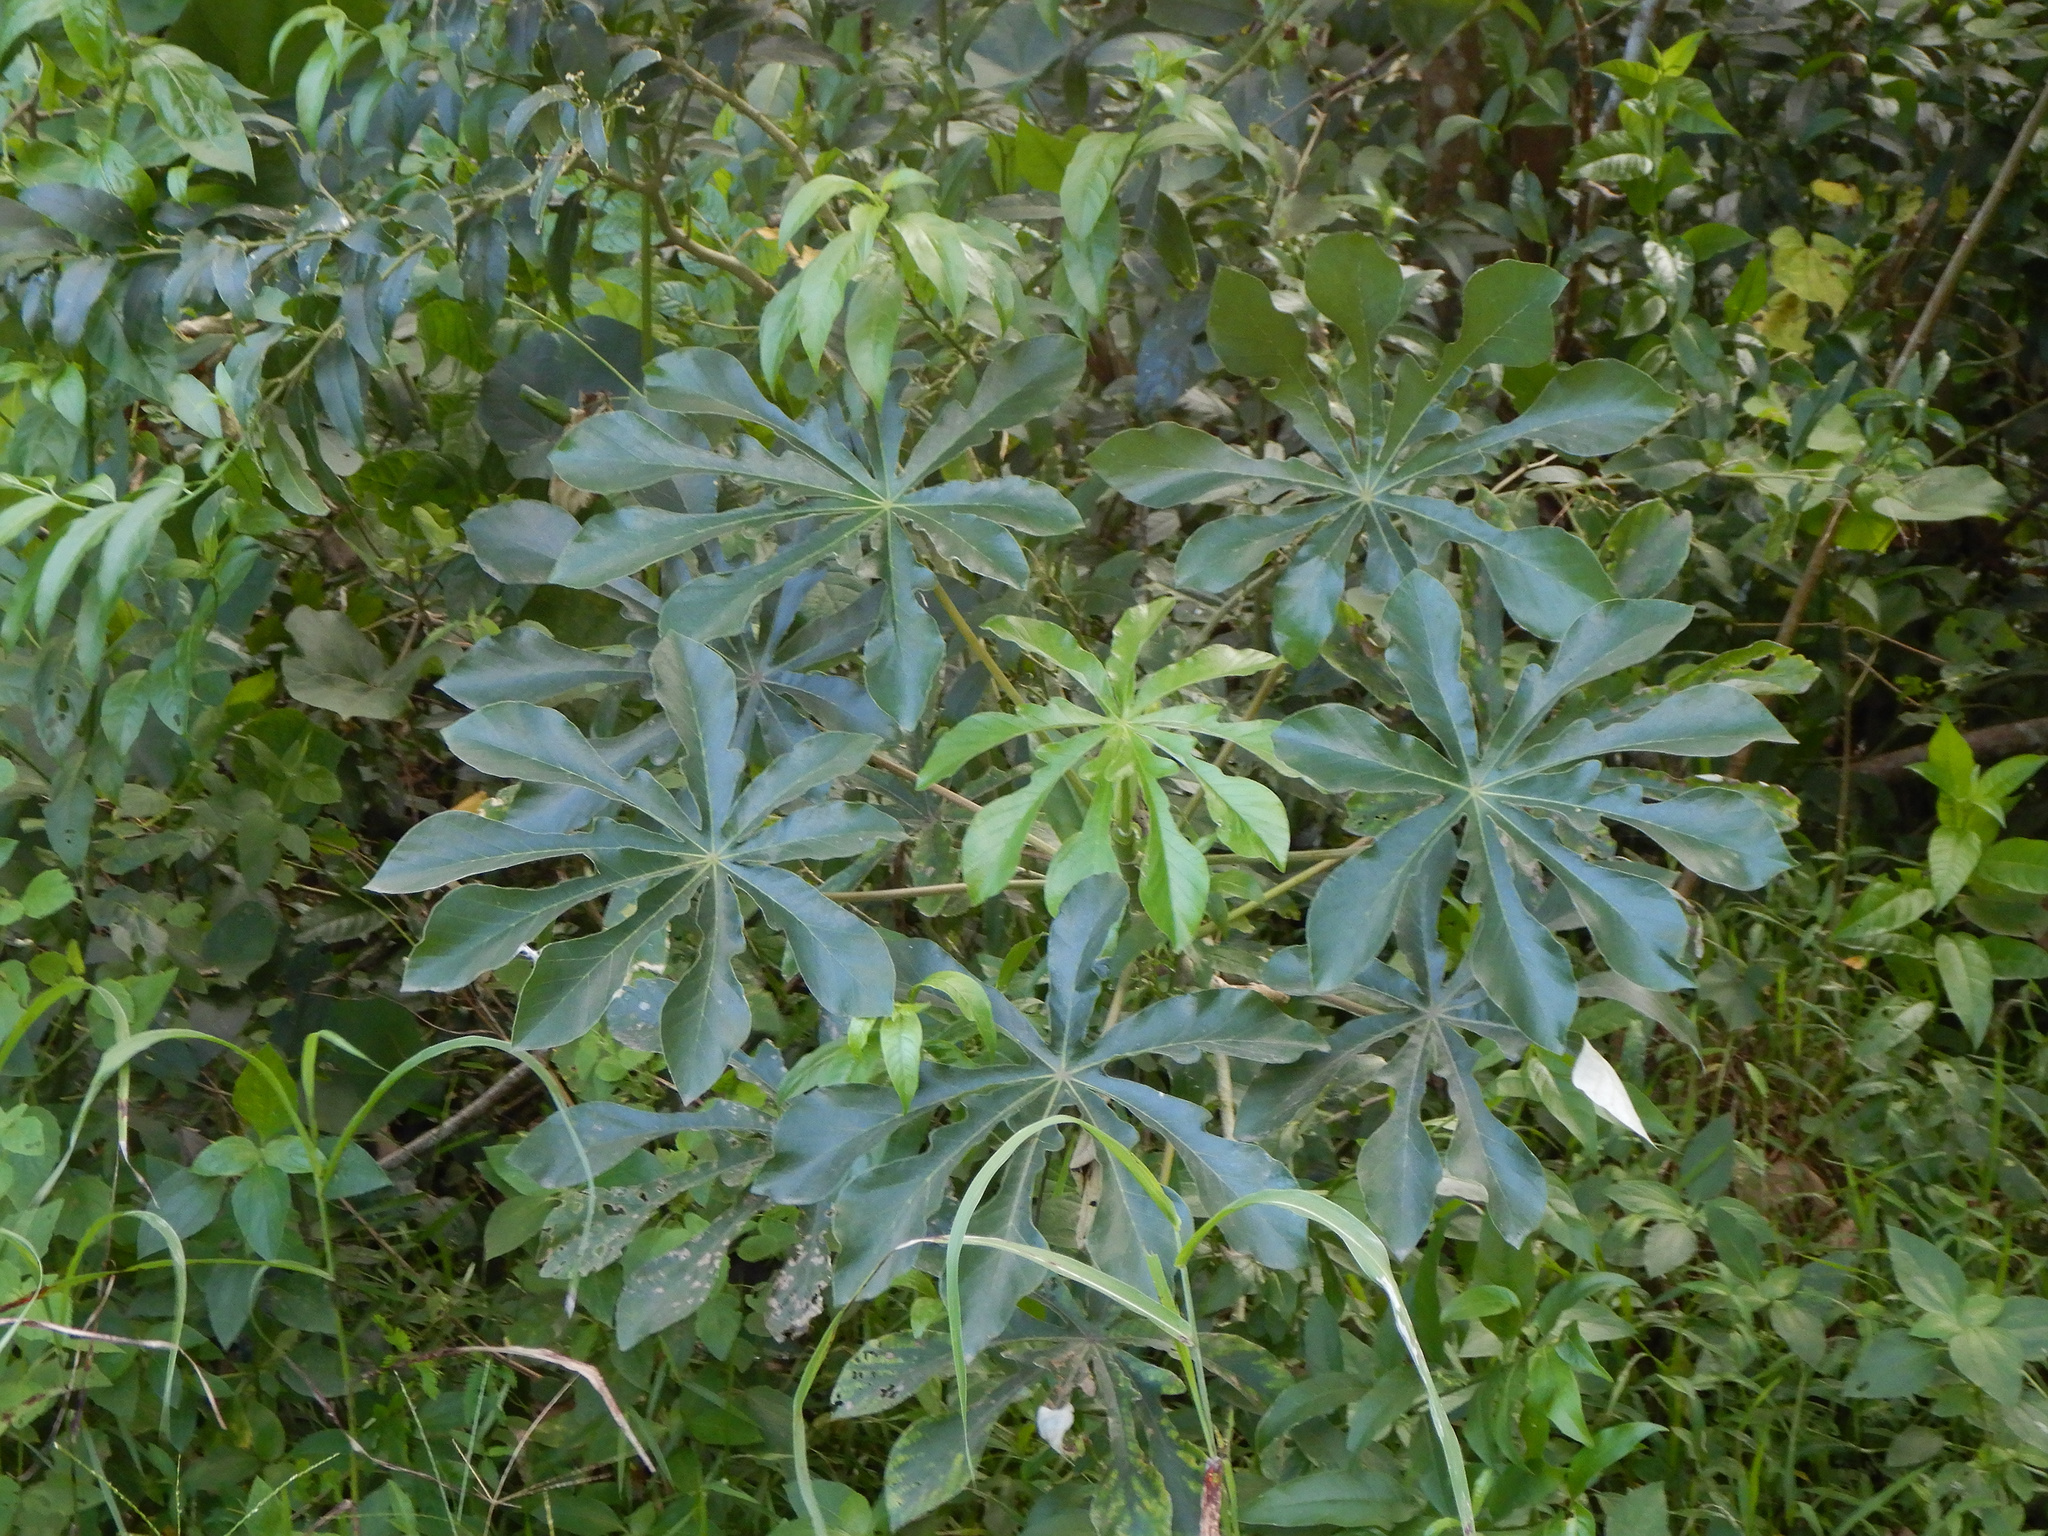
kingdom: Plantae
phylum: Tracheophyta
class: Magnoliopsida
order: Rosales
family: Urticaceae
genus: Cecropia
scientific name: Cecropia pachystachya
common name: Ambay pumpwood
